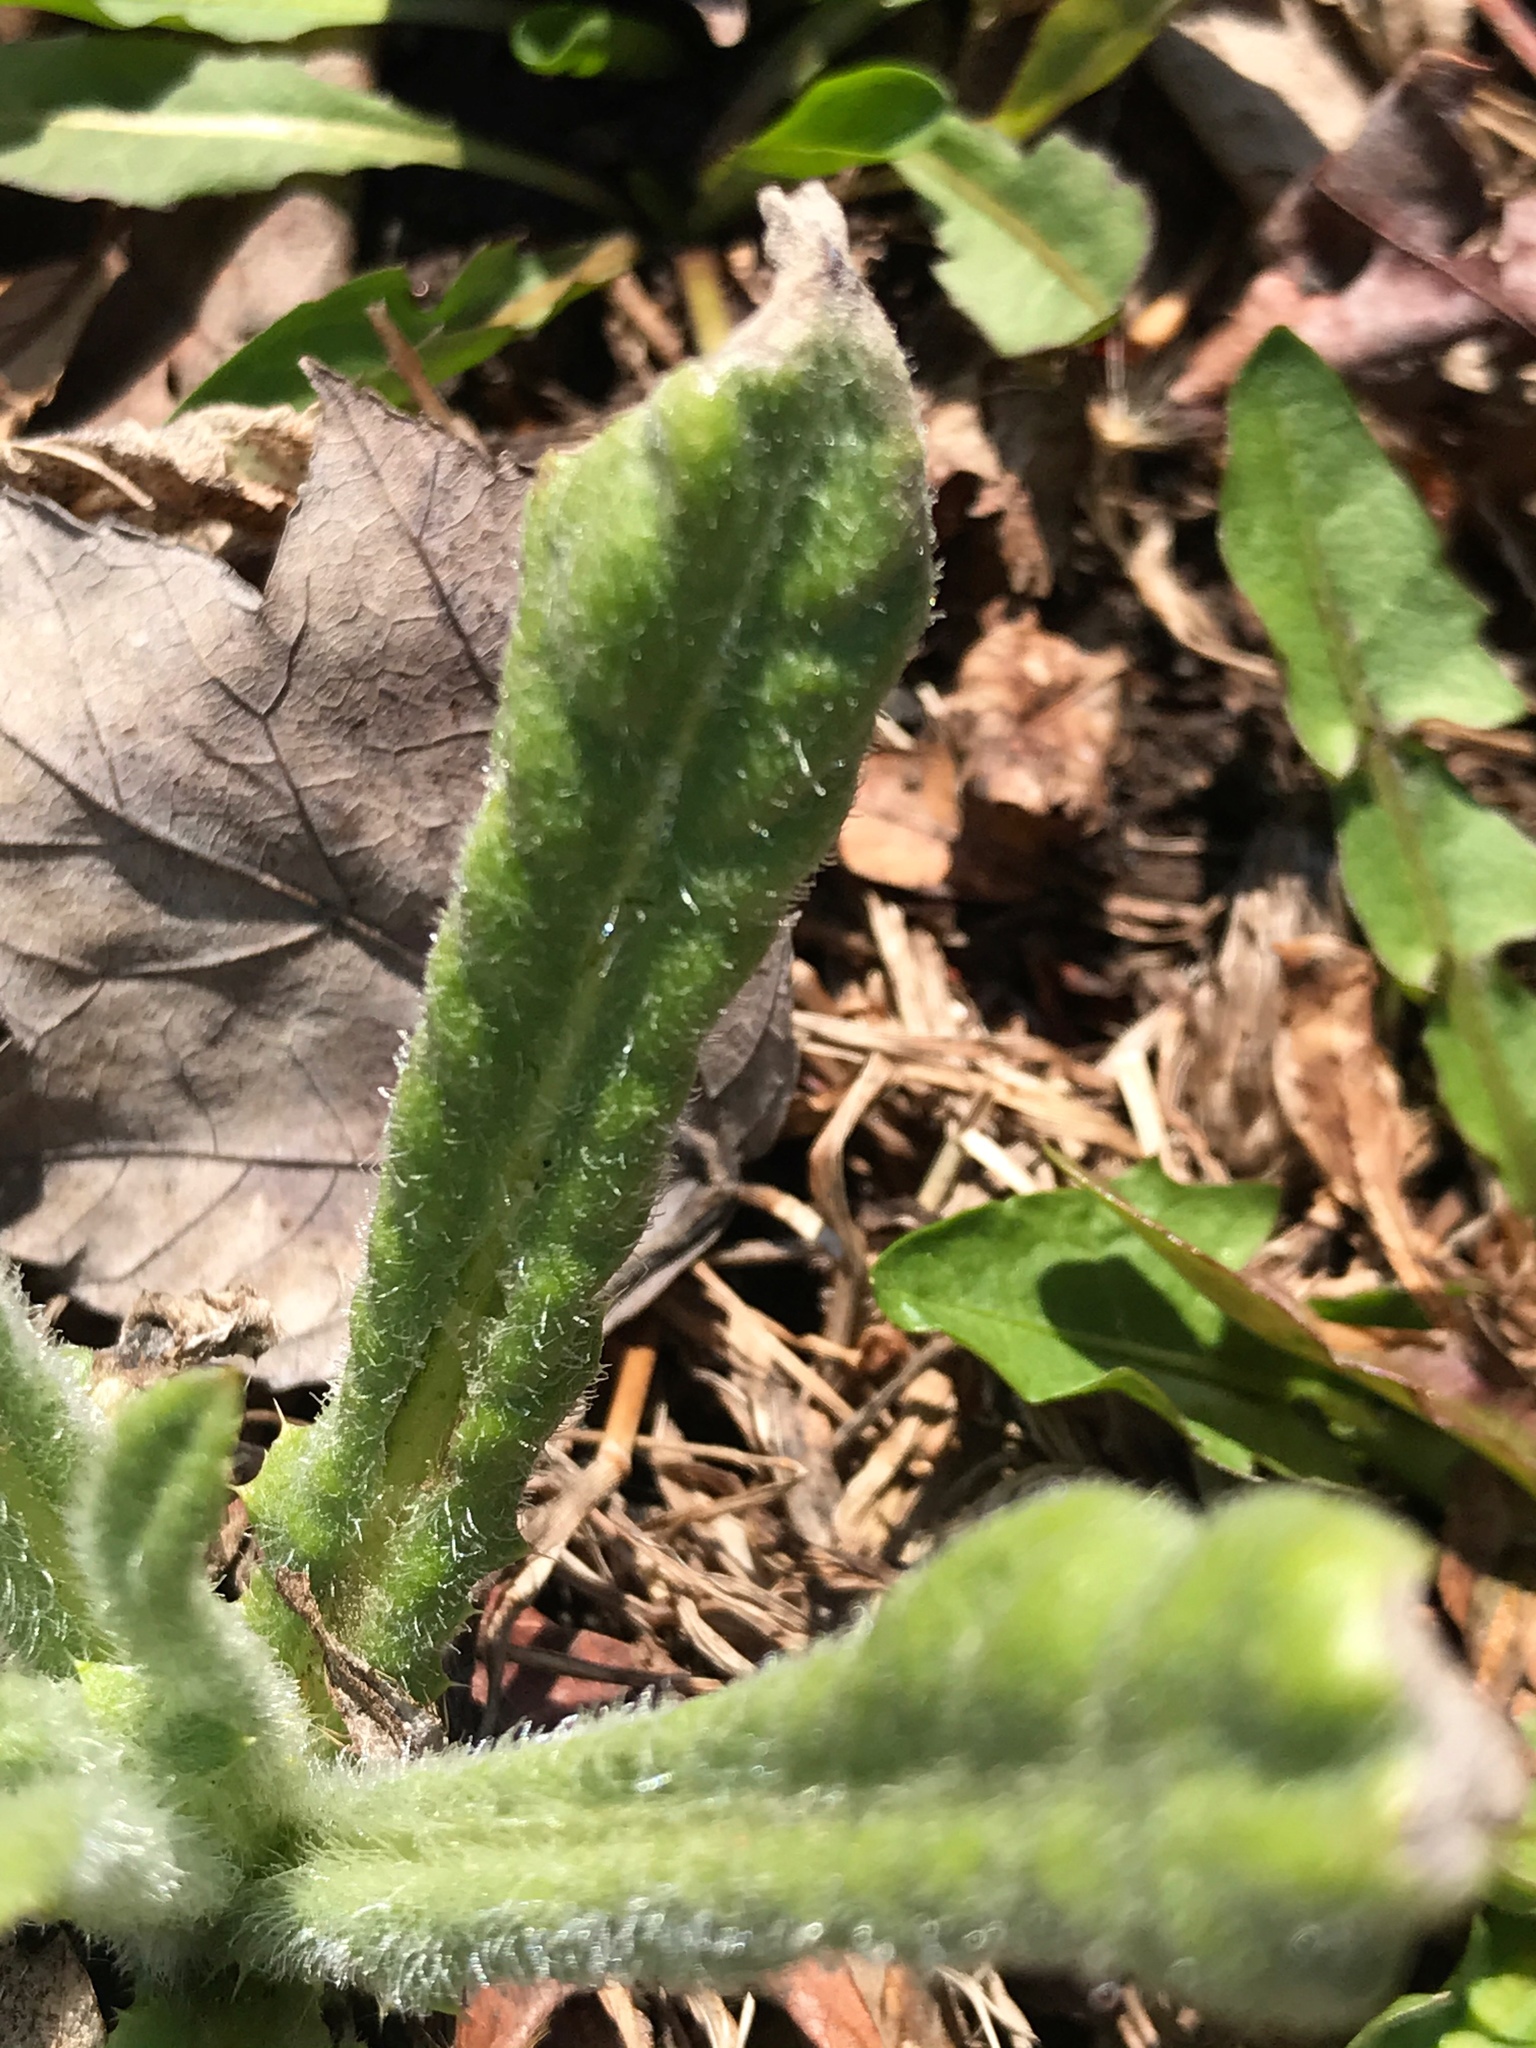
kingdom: Plantae
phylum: Tracheophyta
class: Magnoliopsida
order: Asterales
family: Asteraceae
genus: Cirsium
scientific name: Cirsium arvense
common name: Creeping thistle
